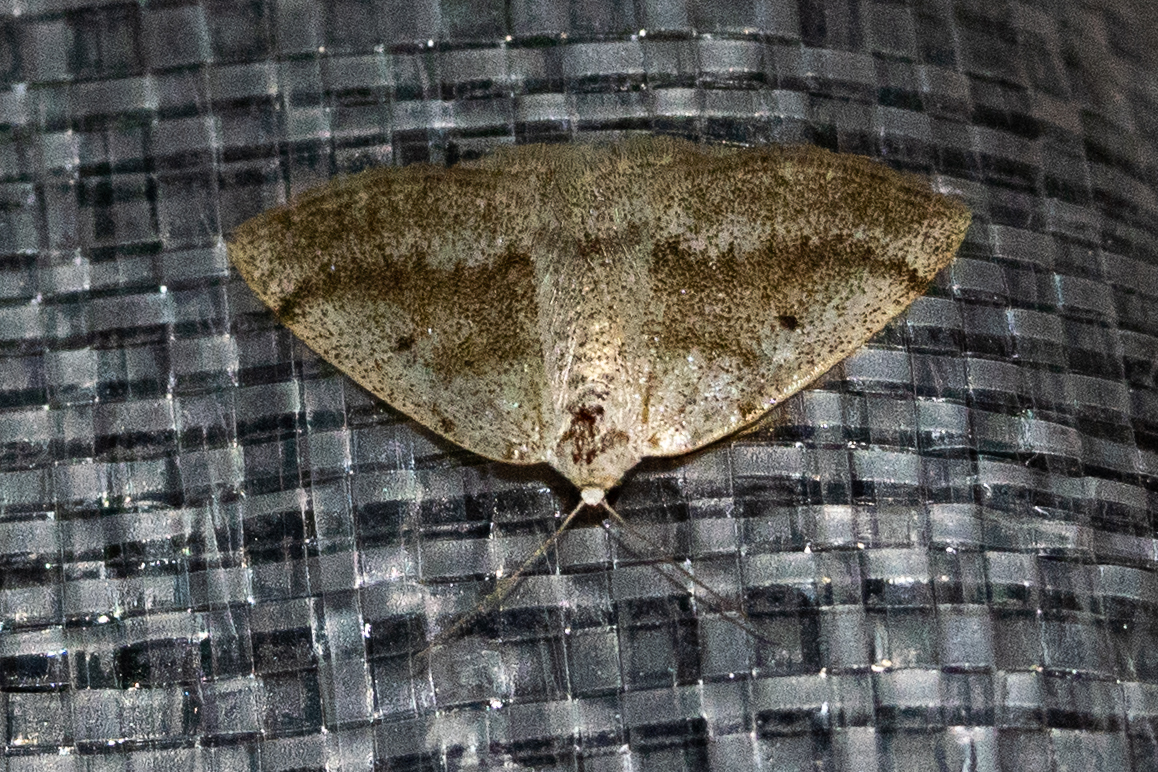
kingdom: Animalia
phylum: Arthropoda
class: Insecta
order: Lepidoptera
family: Geometridae
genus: Lomographa
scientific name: Lomographa glomeraria
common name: Gray spring moth
